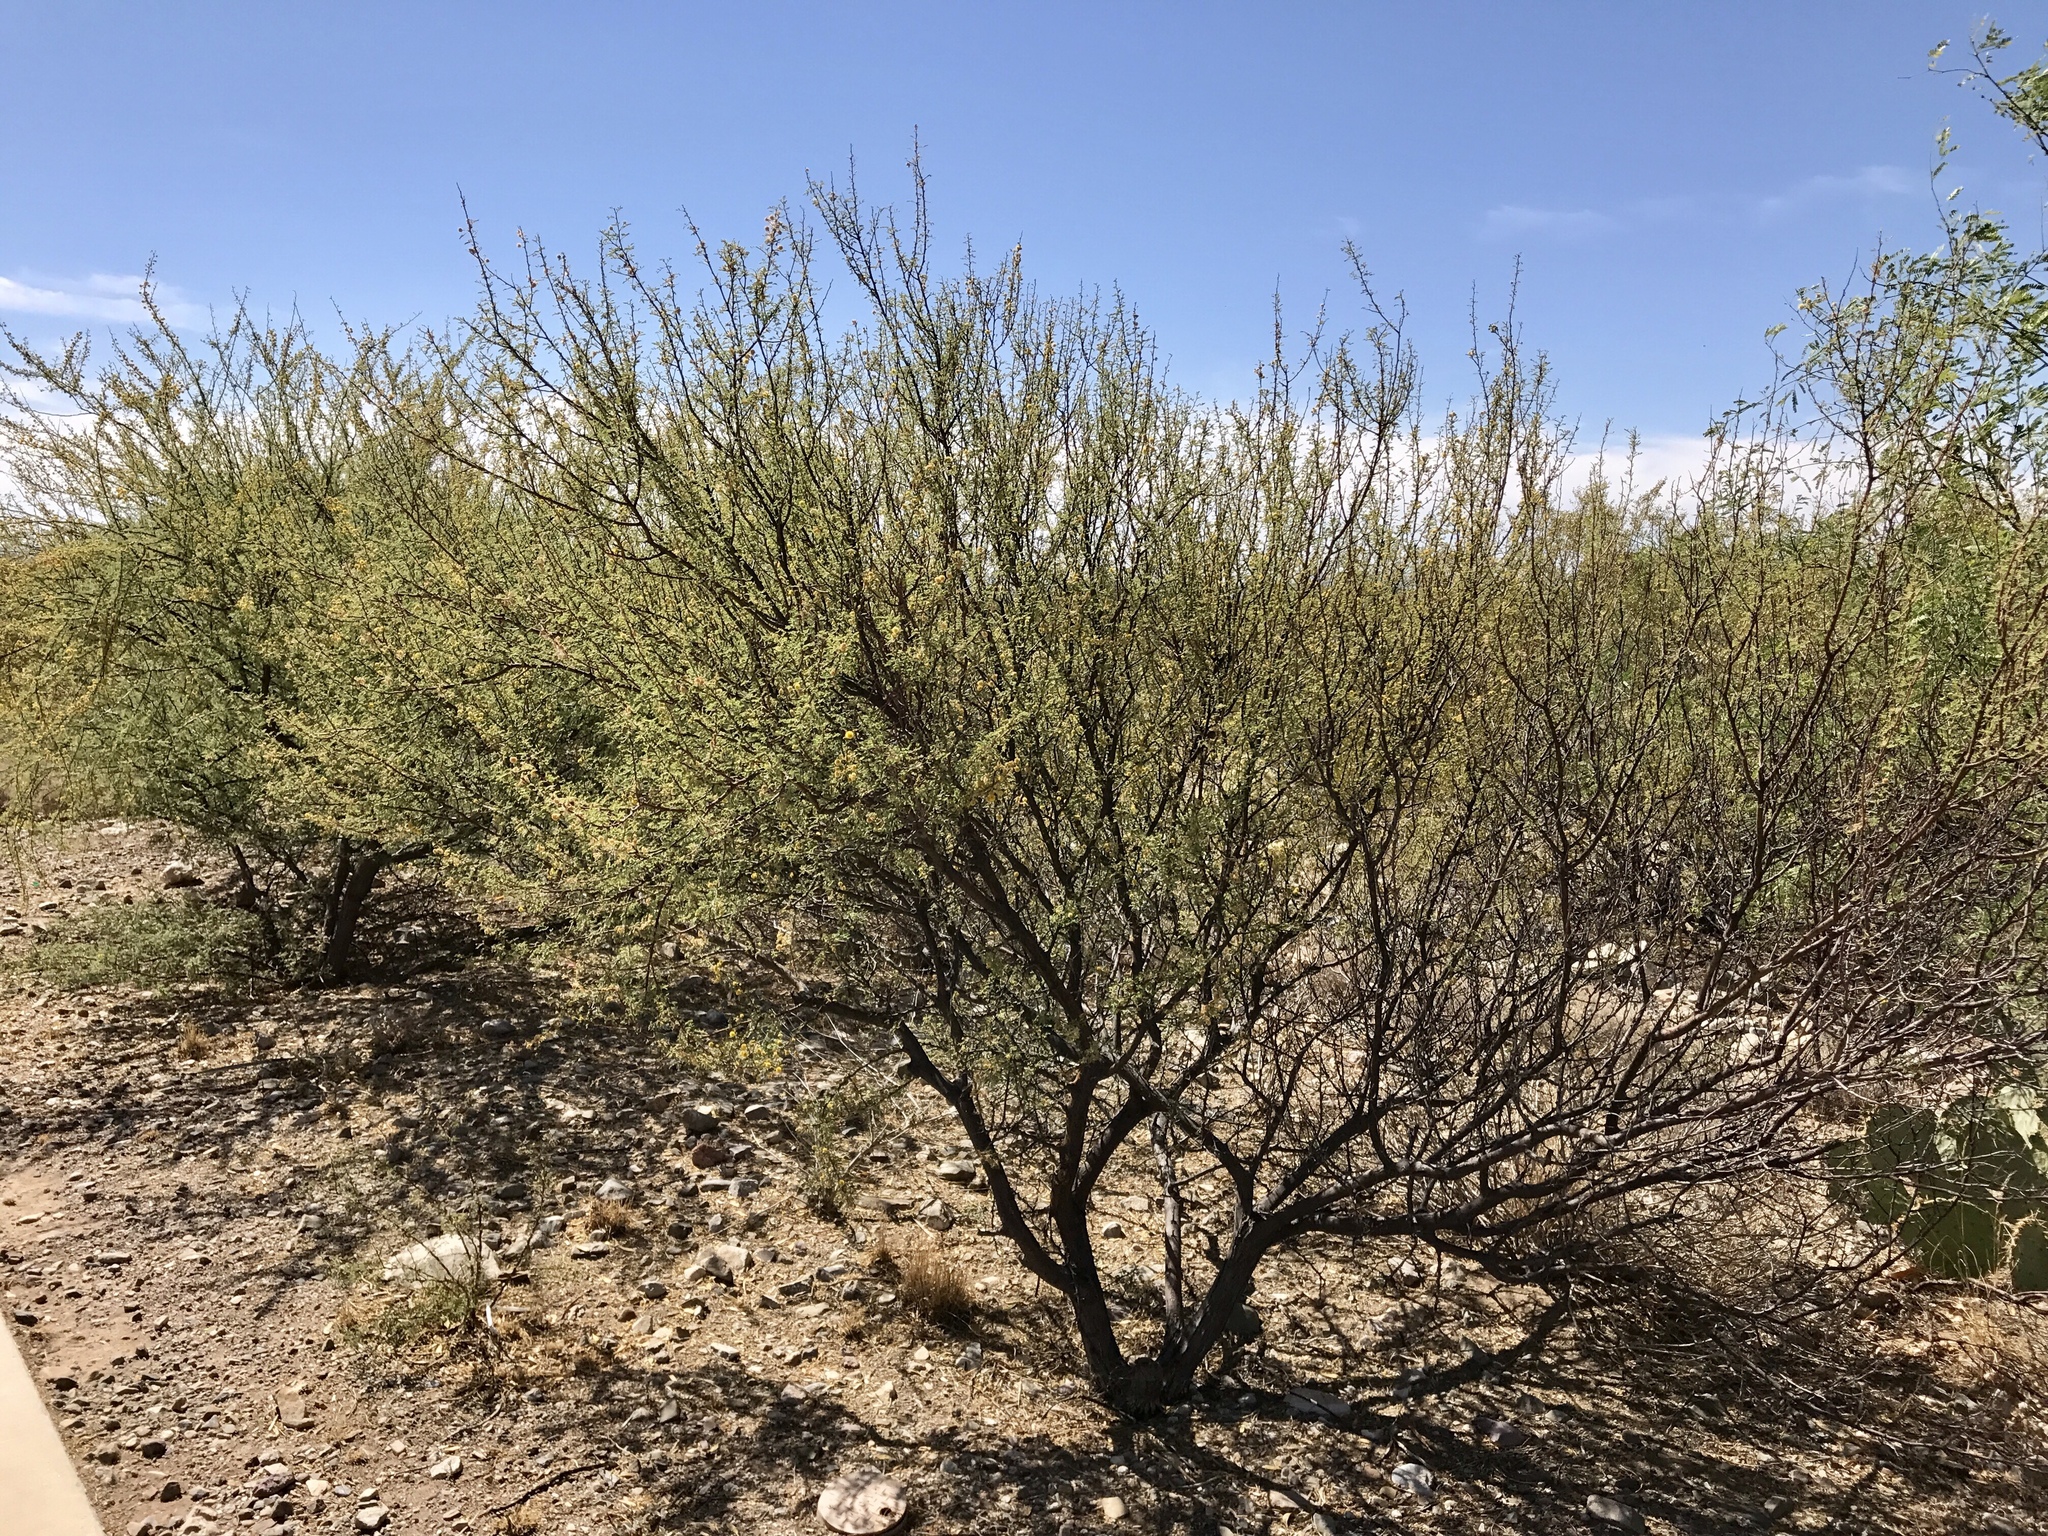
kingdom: Plantae
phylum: Tracheophyta
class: Magnoliopsida
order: Fabales
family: Fabaceae
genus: Vachellia
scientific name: Vachellia constricta
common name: Mescat acacia
